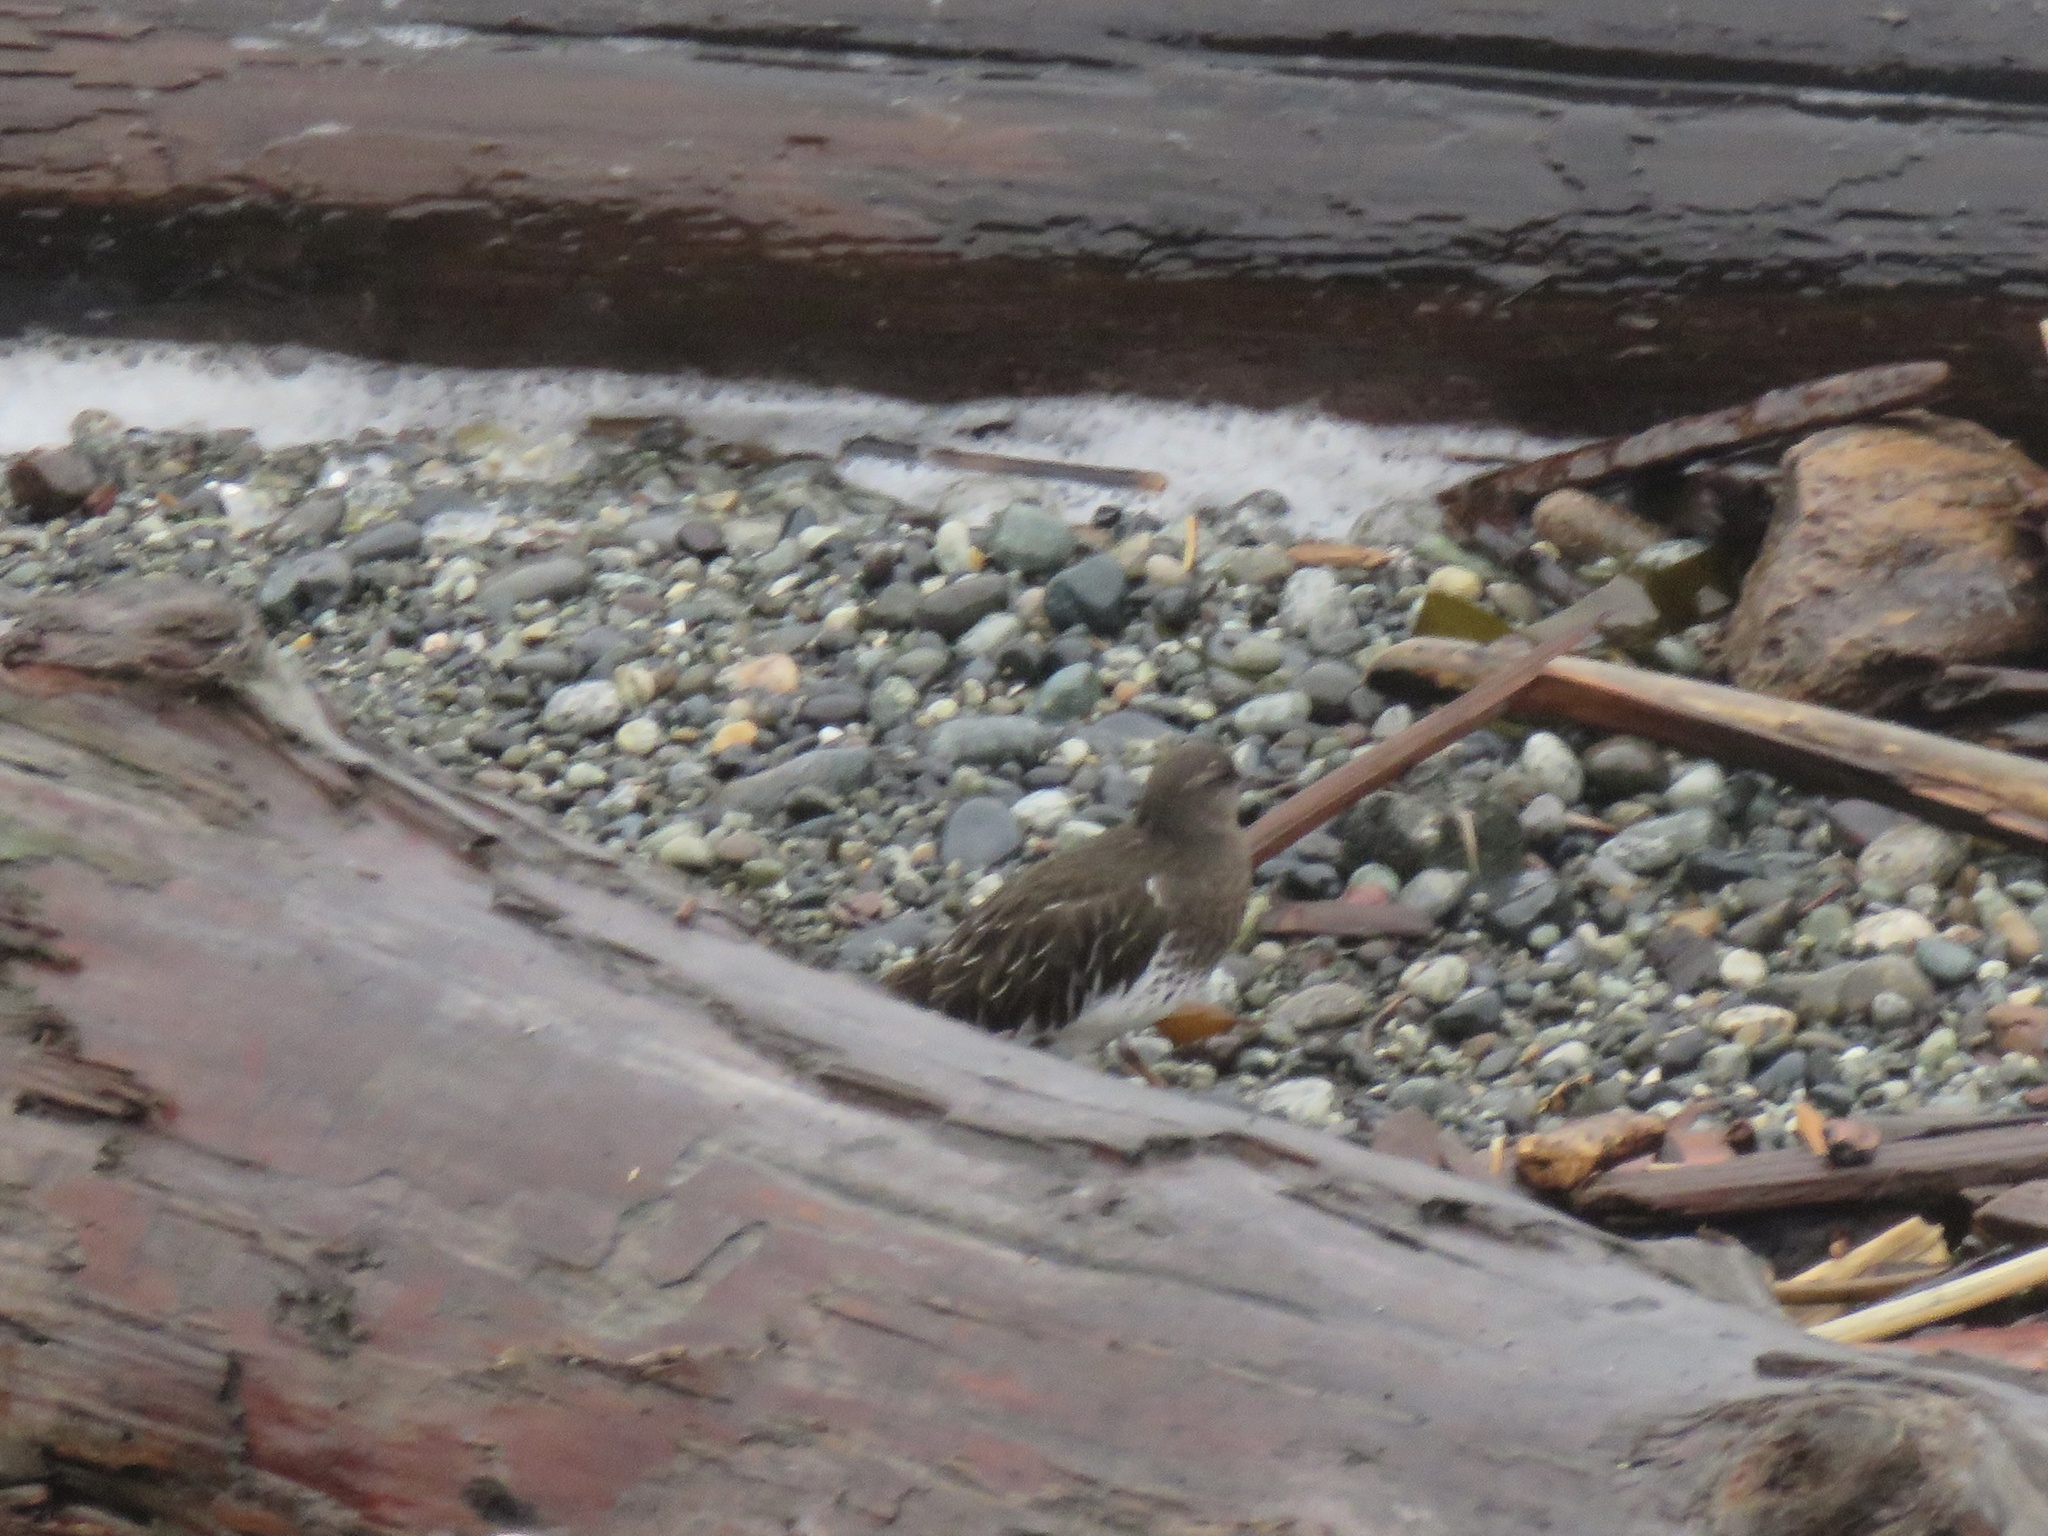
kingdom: Animalia
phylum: Chordata
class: Aves
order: Charadriiformes
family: Scolopacidae
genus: Arenaria
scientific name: Arenaria melanocephala
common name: Black turnstone
